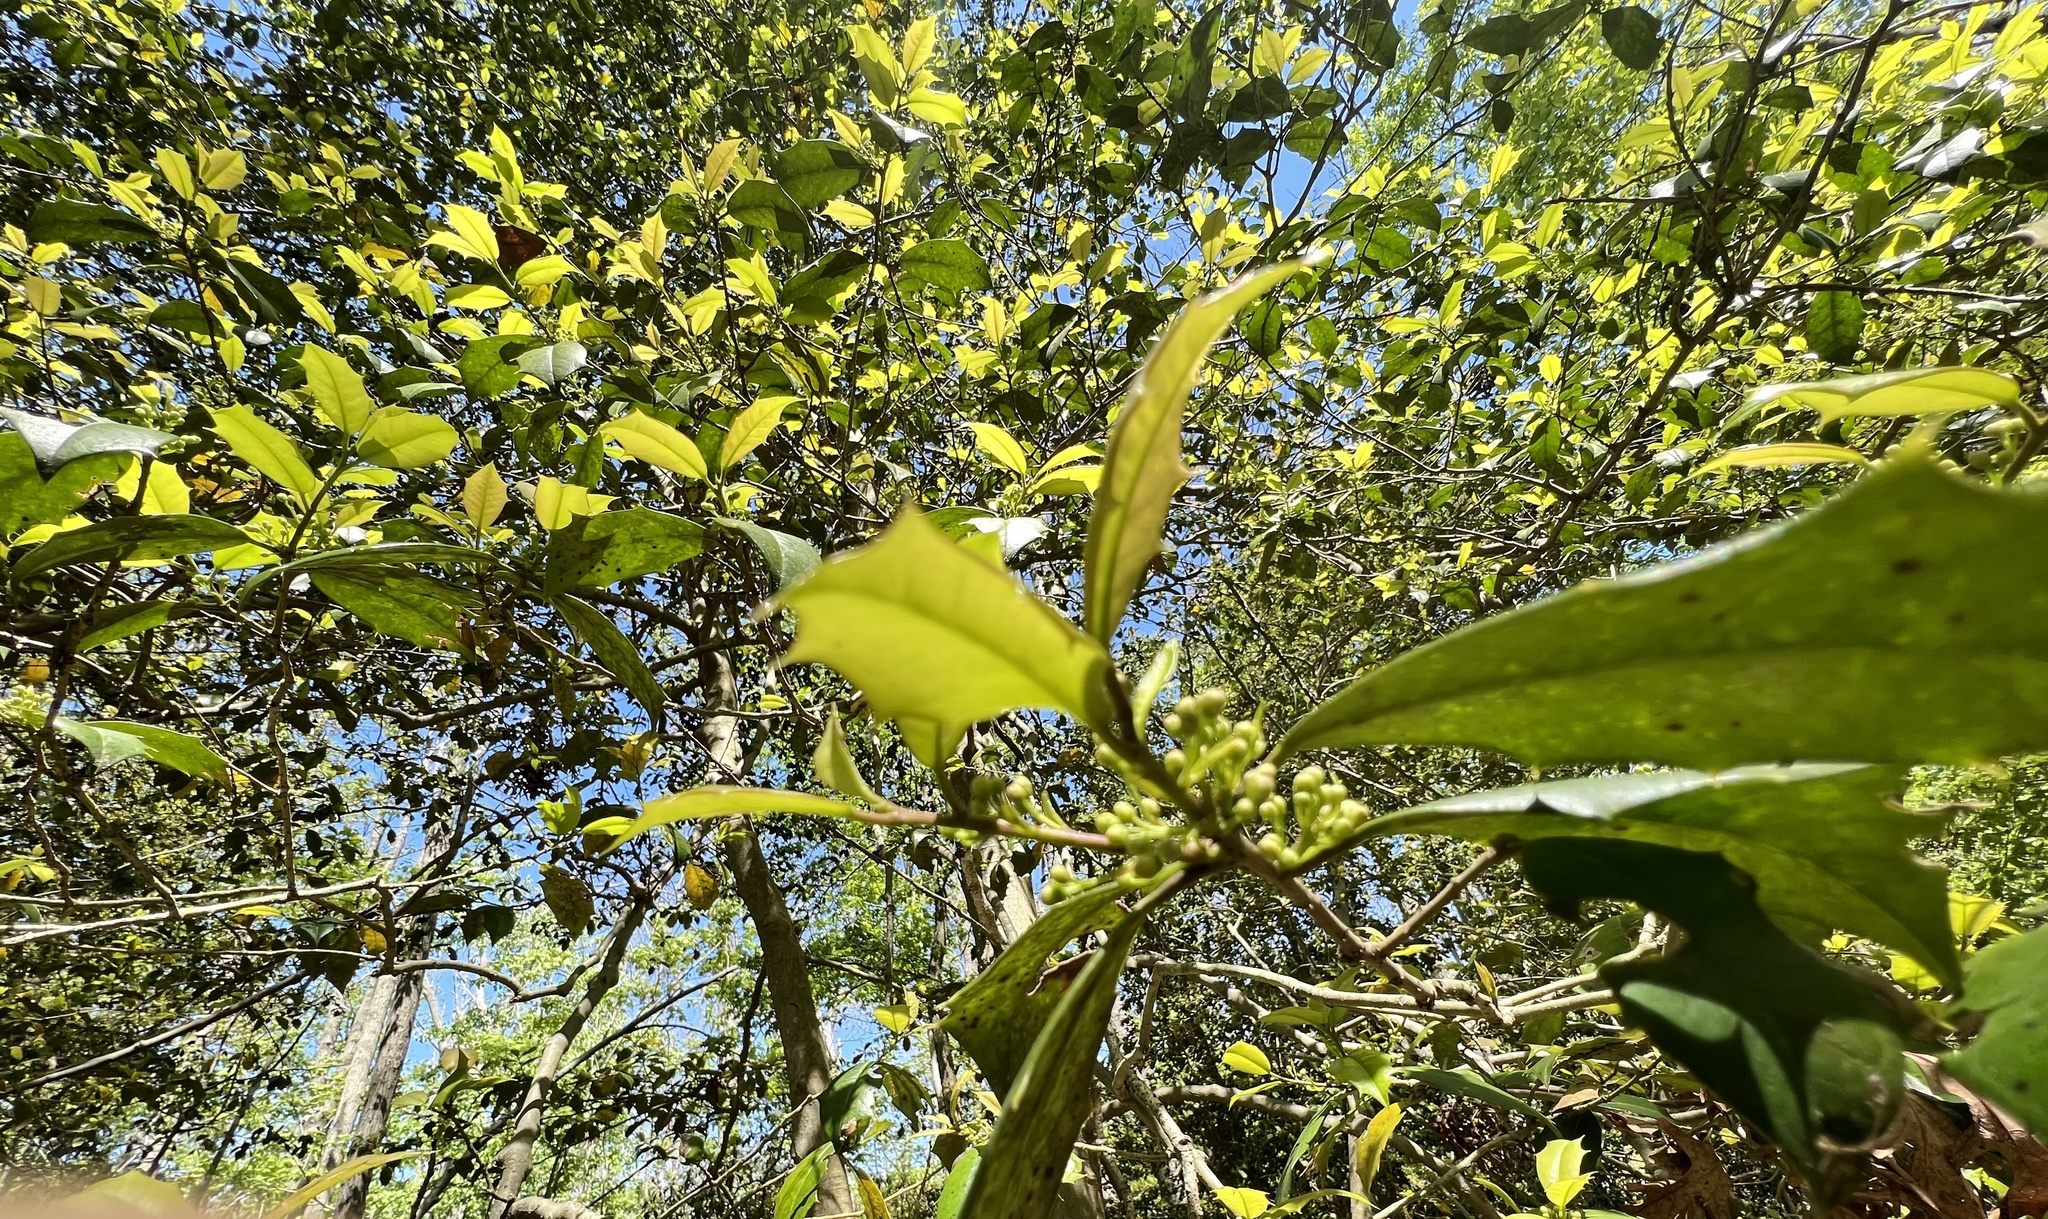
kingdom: Plantae
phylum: Tracheophyta
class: Magnoliopsida
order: Aquifoliales
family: Aquifoliaceae
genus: Ilex
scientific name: Ilex opaca
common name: American holly
